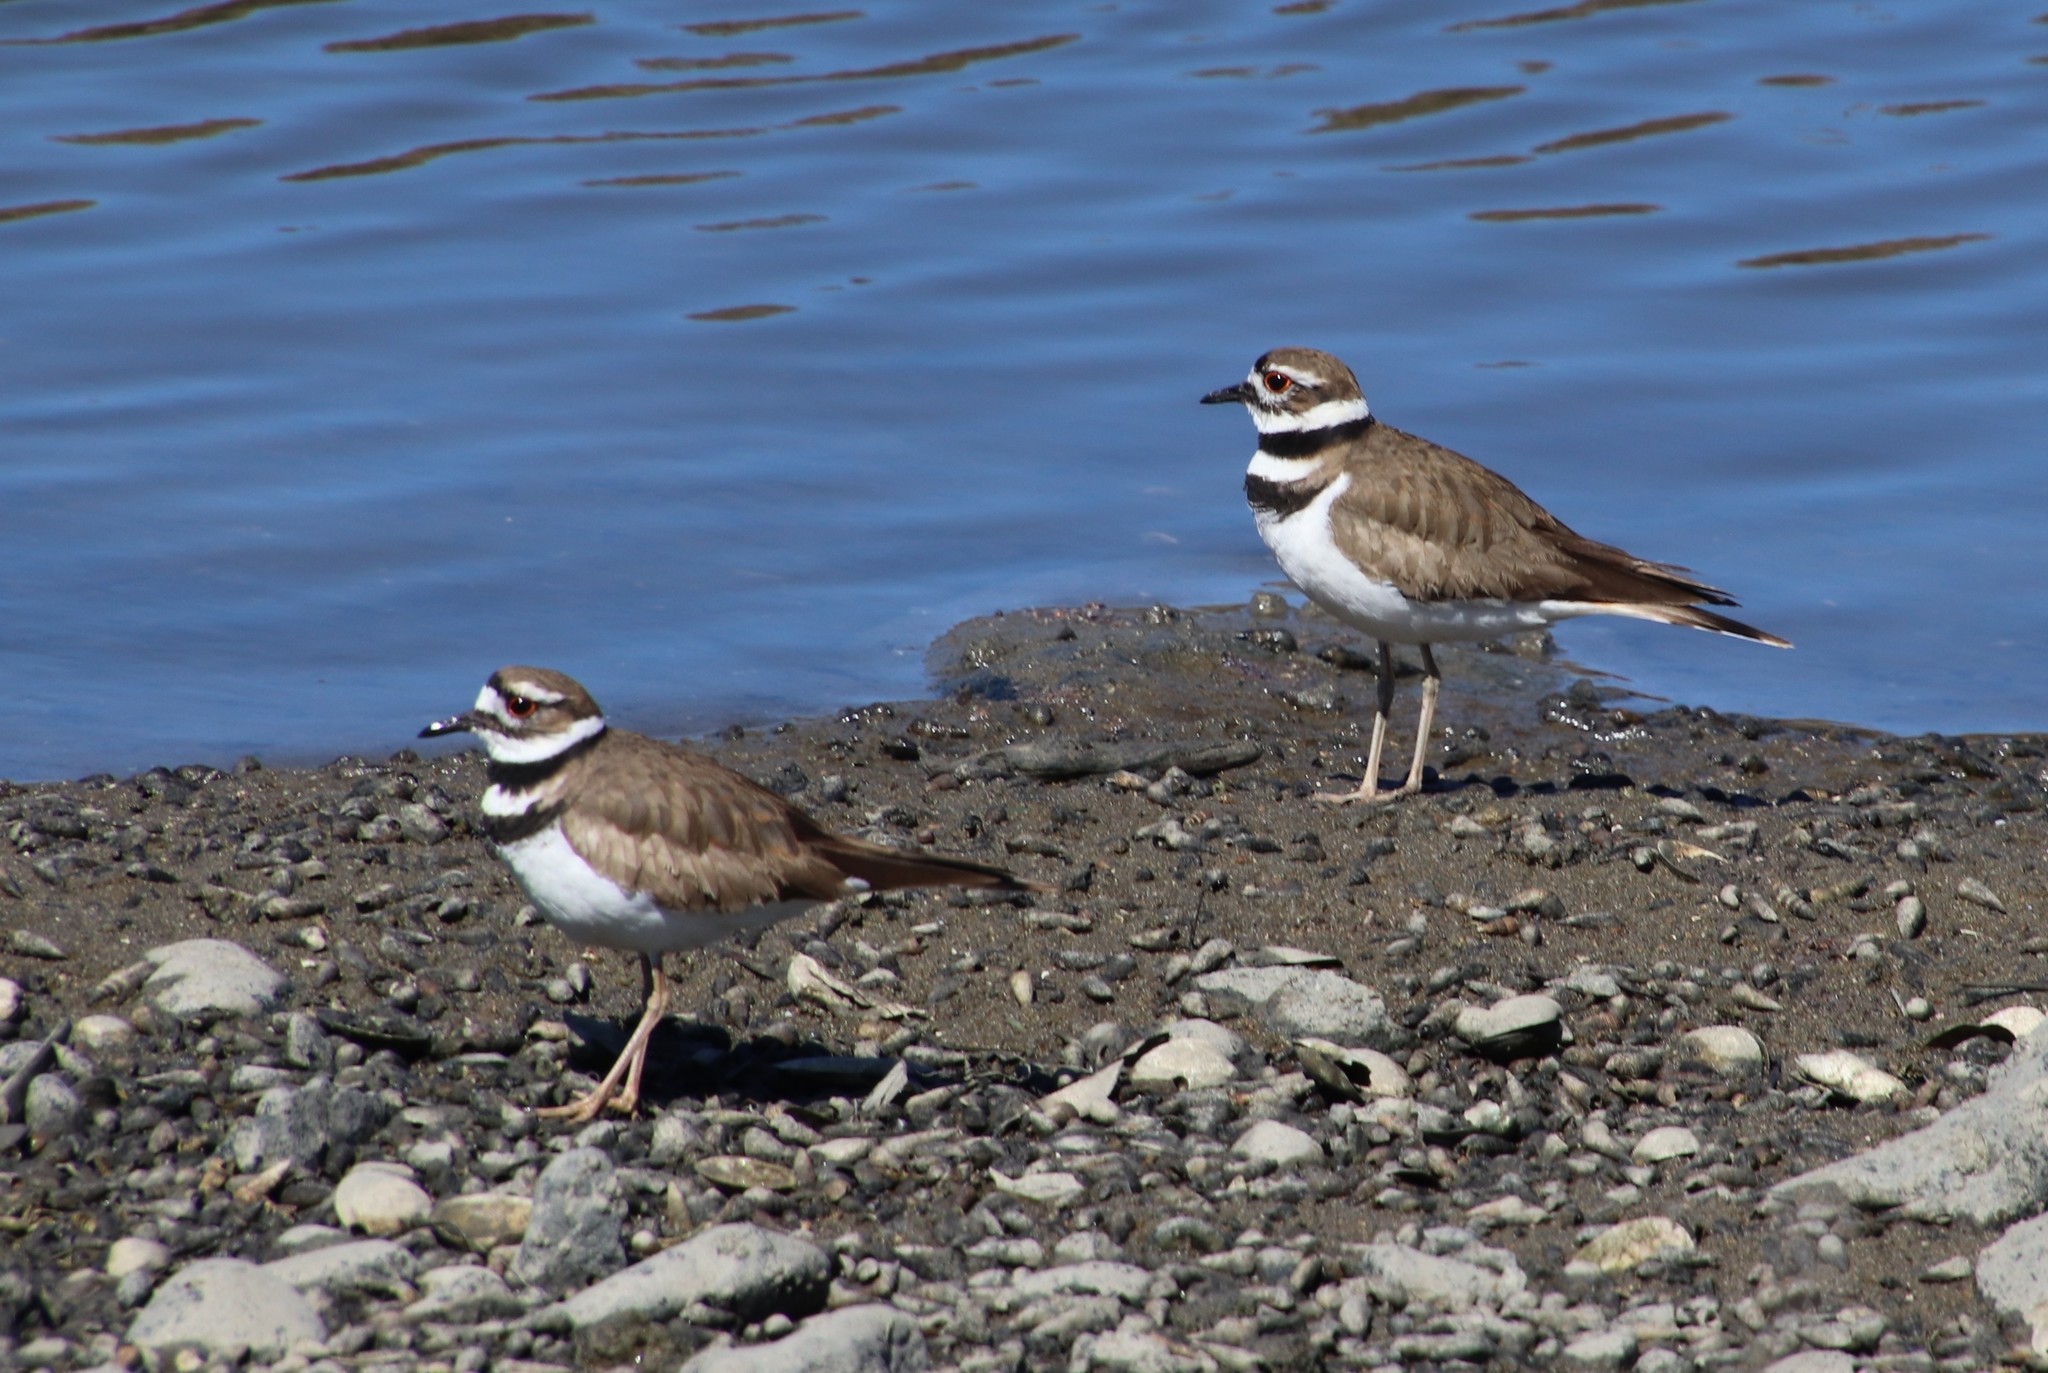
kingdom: Animalia
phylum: Chordata
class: Aves
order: Charadriiformes
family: Charadriidae
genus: Charadrius
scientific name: Charadrius vociferus
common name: Killdeer
